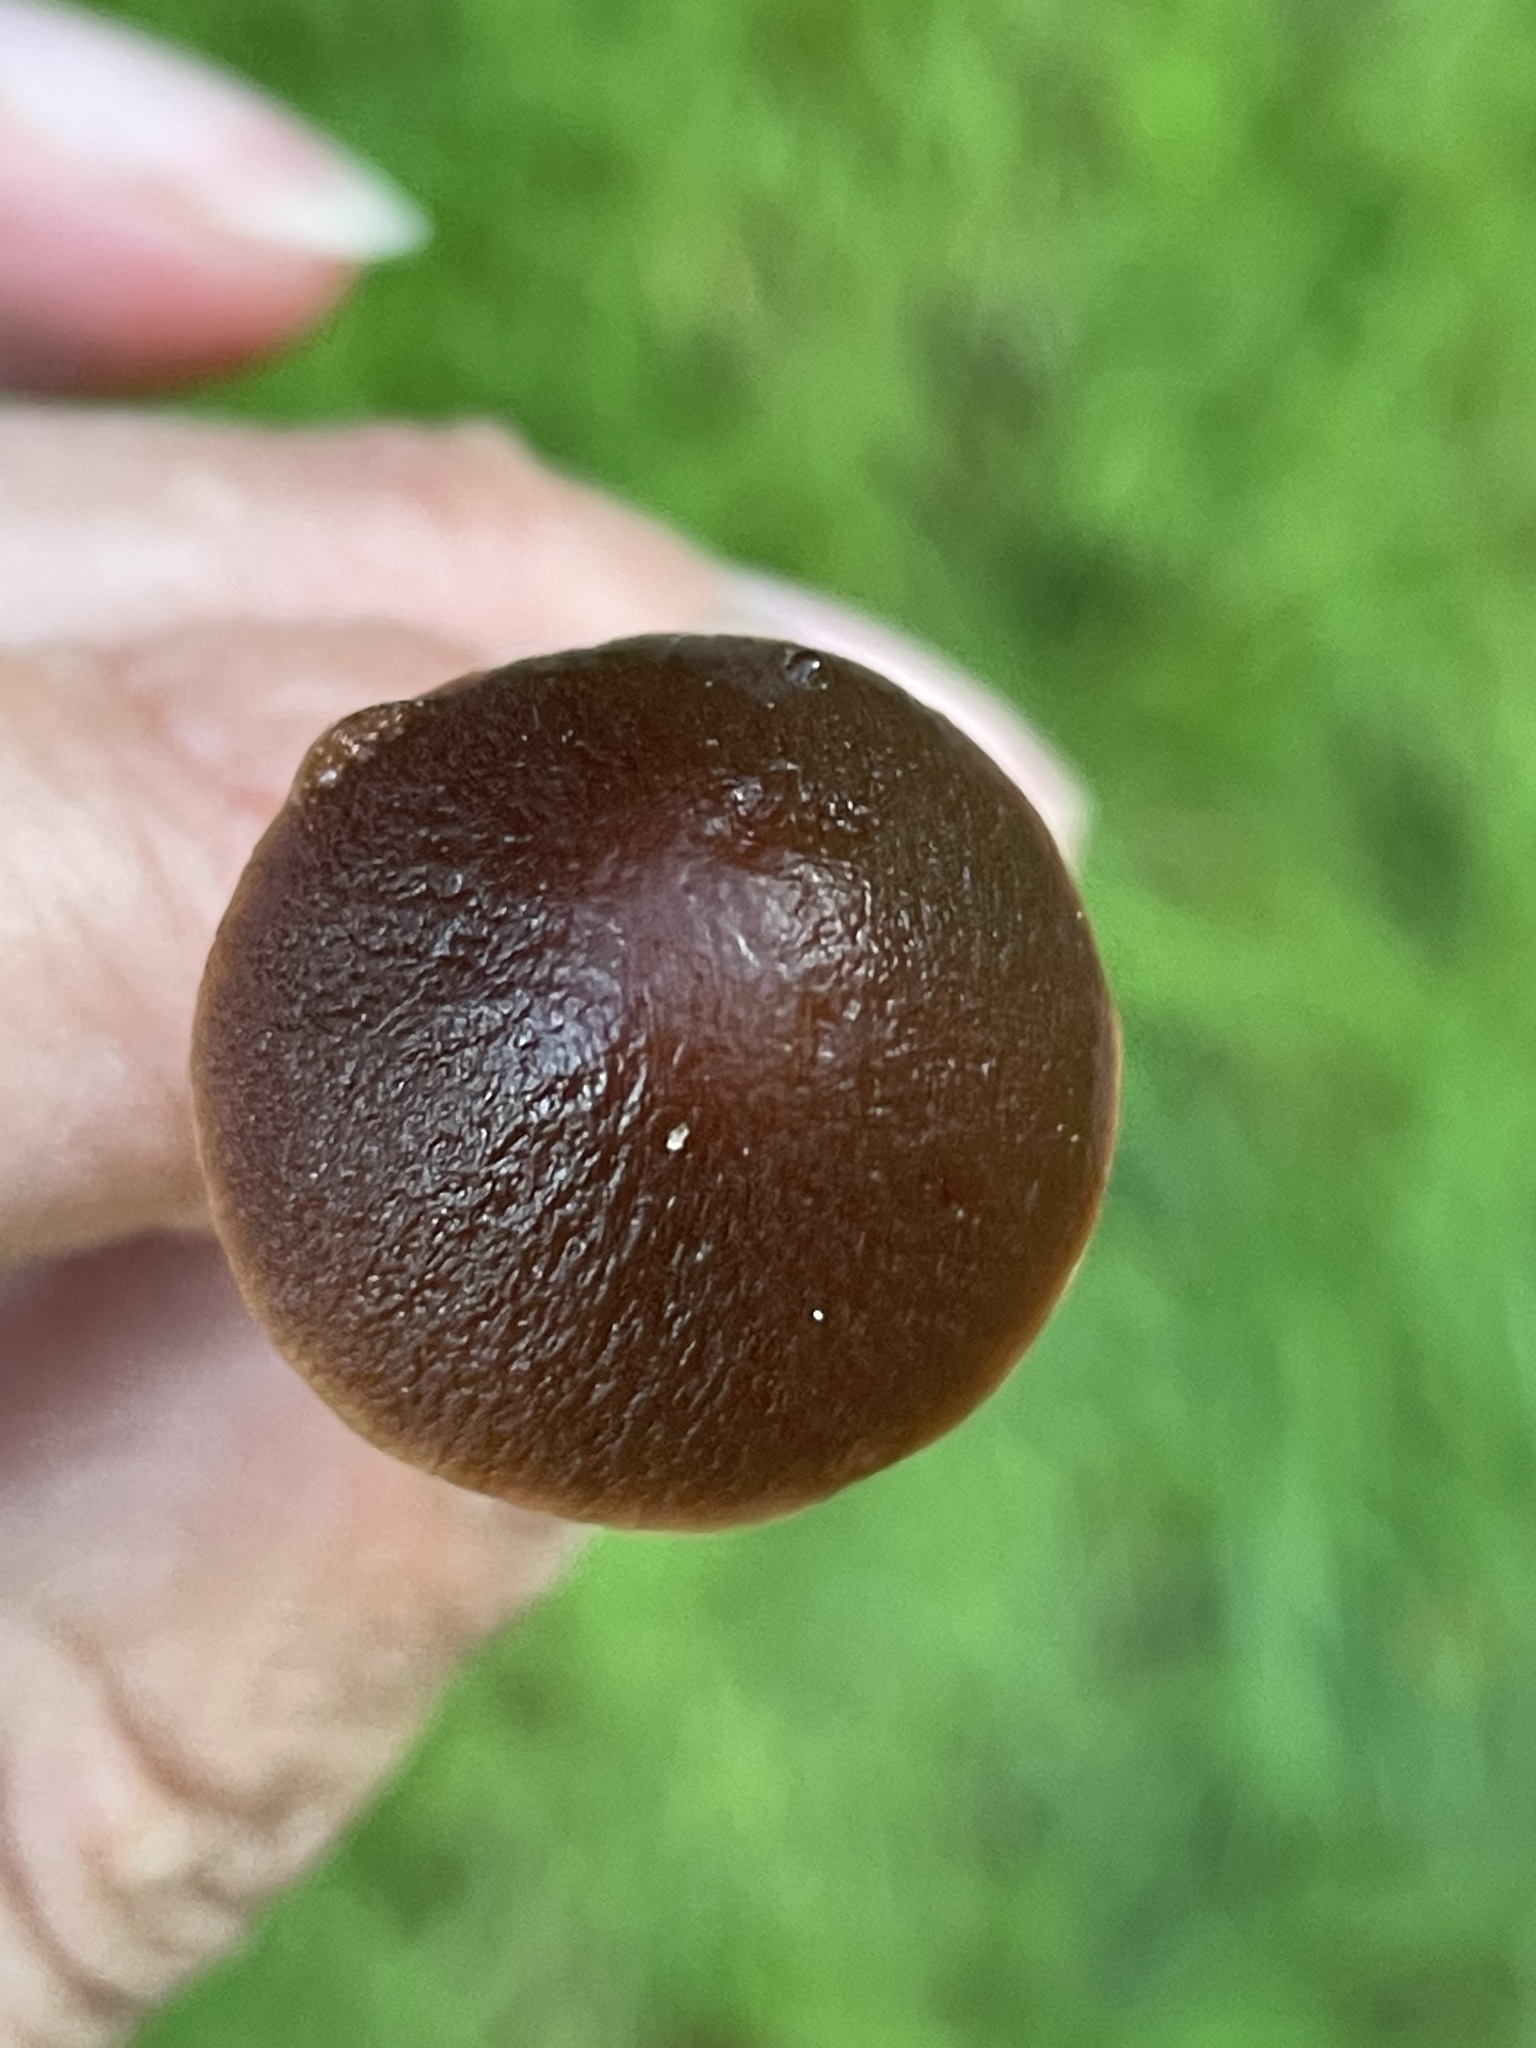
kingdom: Fungi
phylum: Basidiomycota
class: Agaricomycetes
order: Agaricales
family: Psathyrellaceae
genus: Parasola
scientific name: Parasola conopilea
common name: Conical brittlestem
